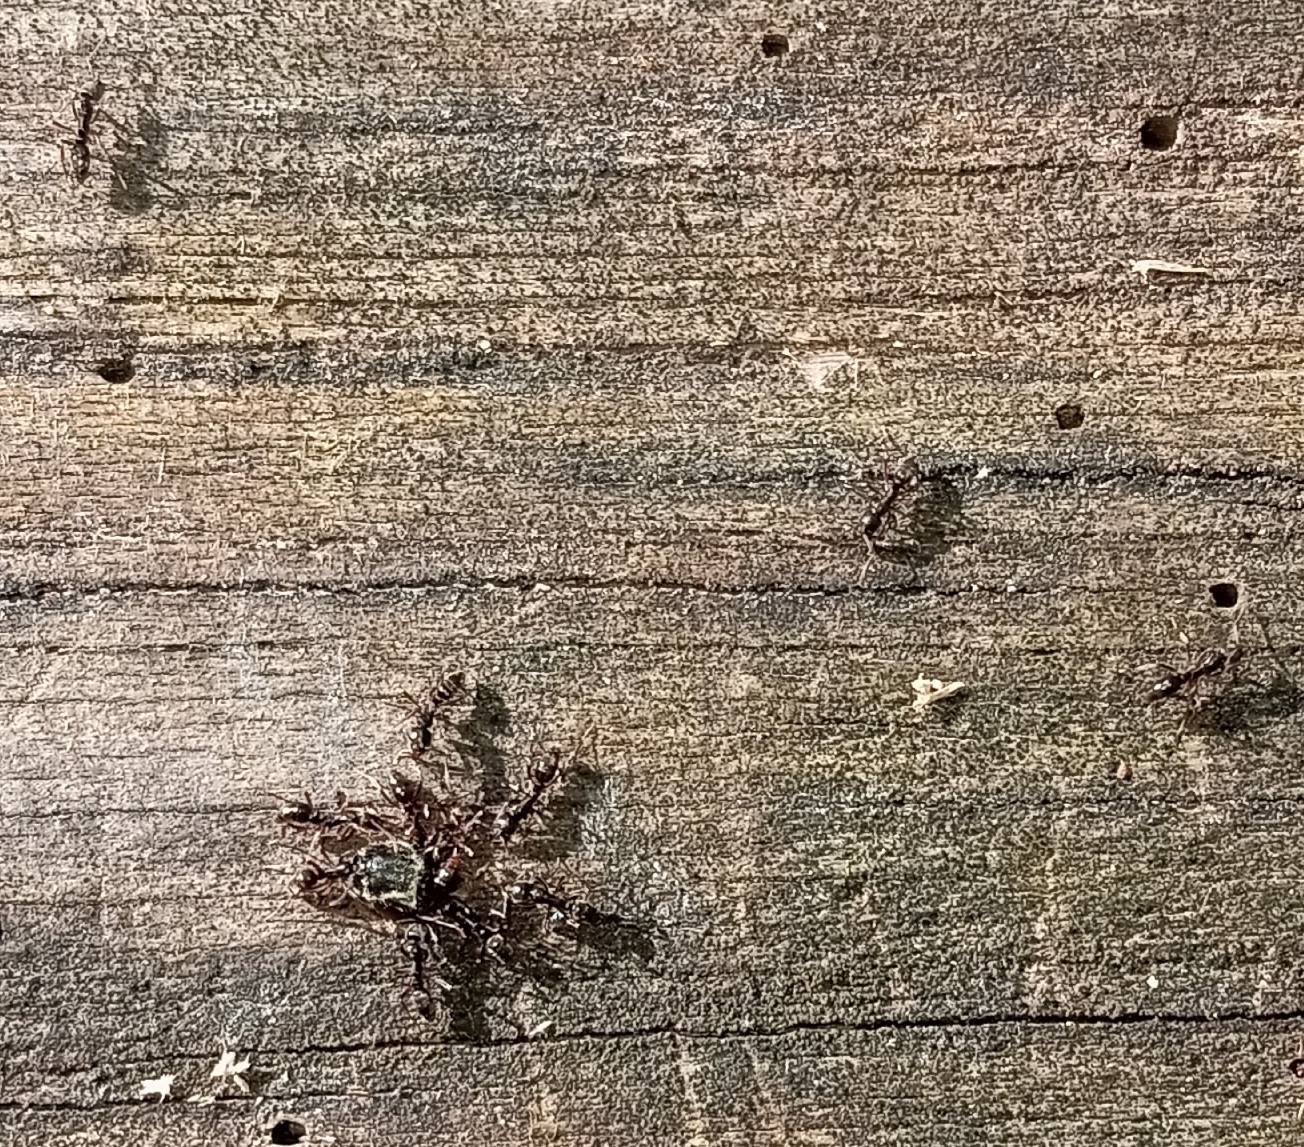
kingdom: Animalia
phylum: Arthropoda
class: Insecta
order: Hymenoptera
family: Formicidae
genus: Pachycondyla
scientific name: Pachycondyla chinensis
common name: Asian needle ant
